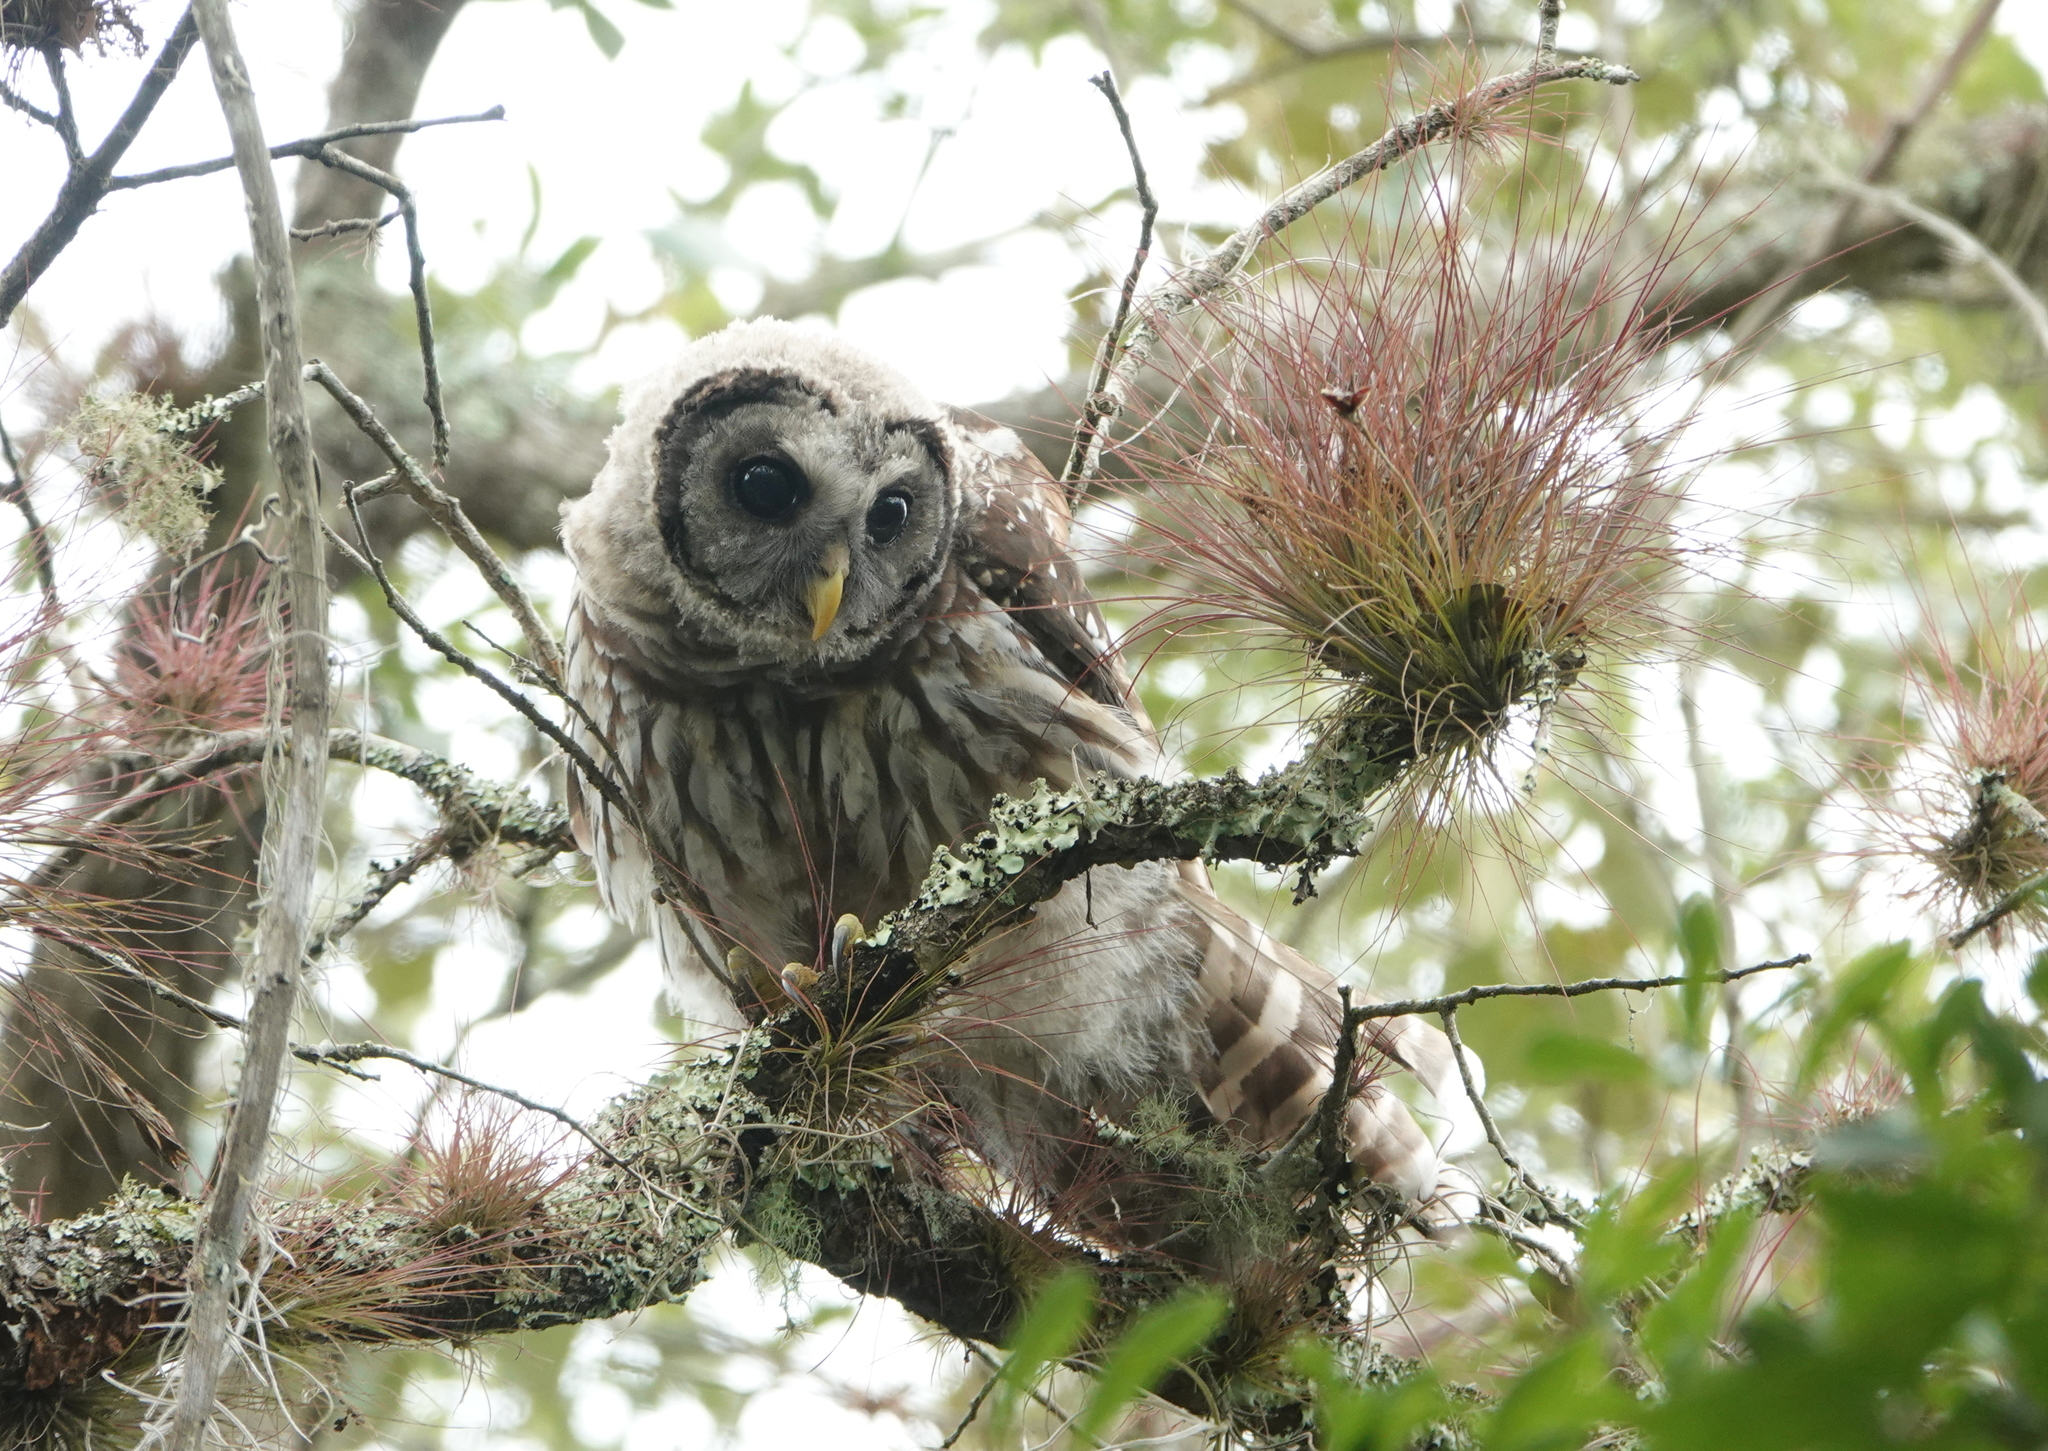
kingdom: Animalia
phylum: Chordata
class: Aves
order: Strigiformes
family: Strigidae
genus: Strix
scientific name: Strix varia
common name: Barred owl
